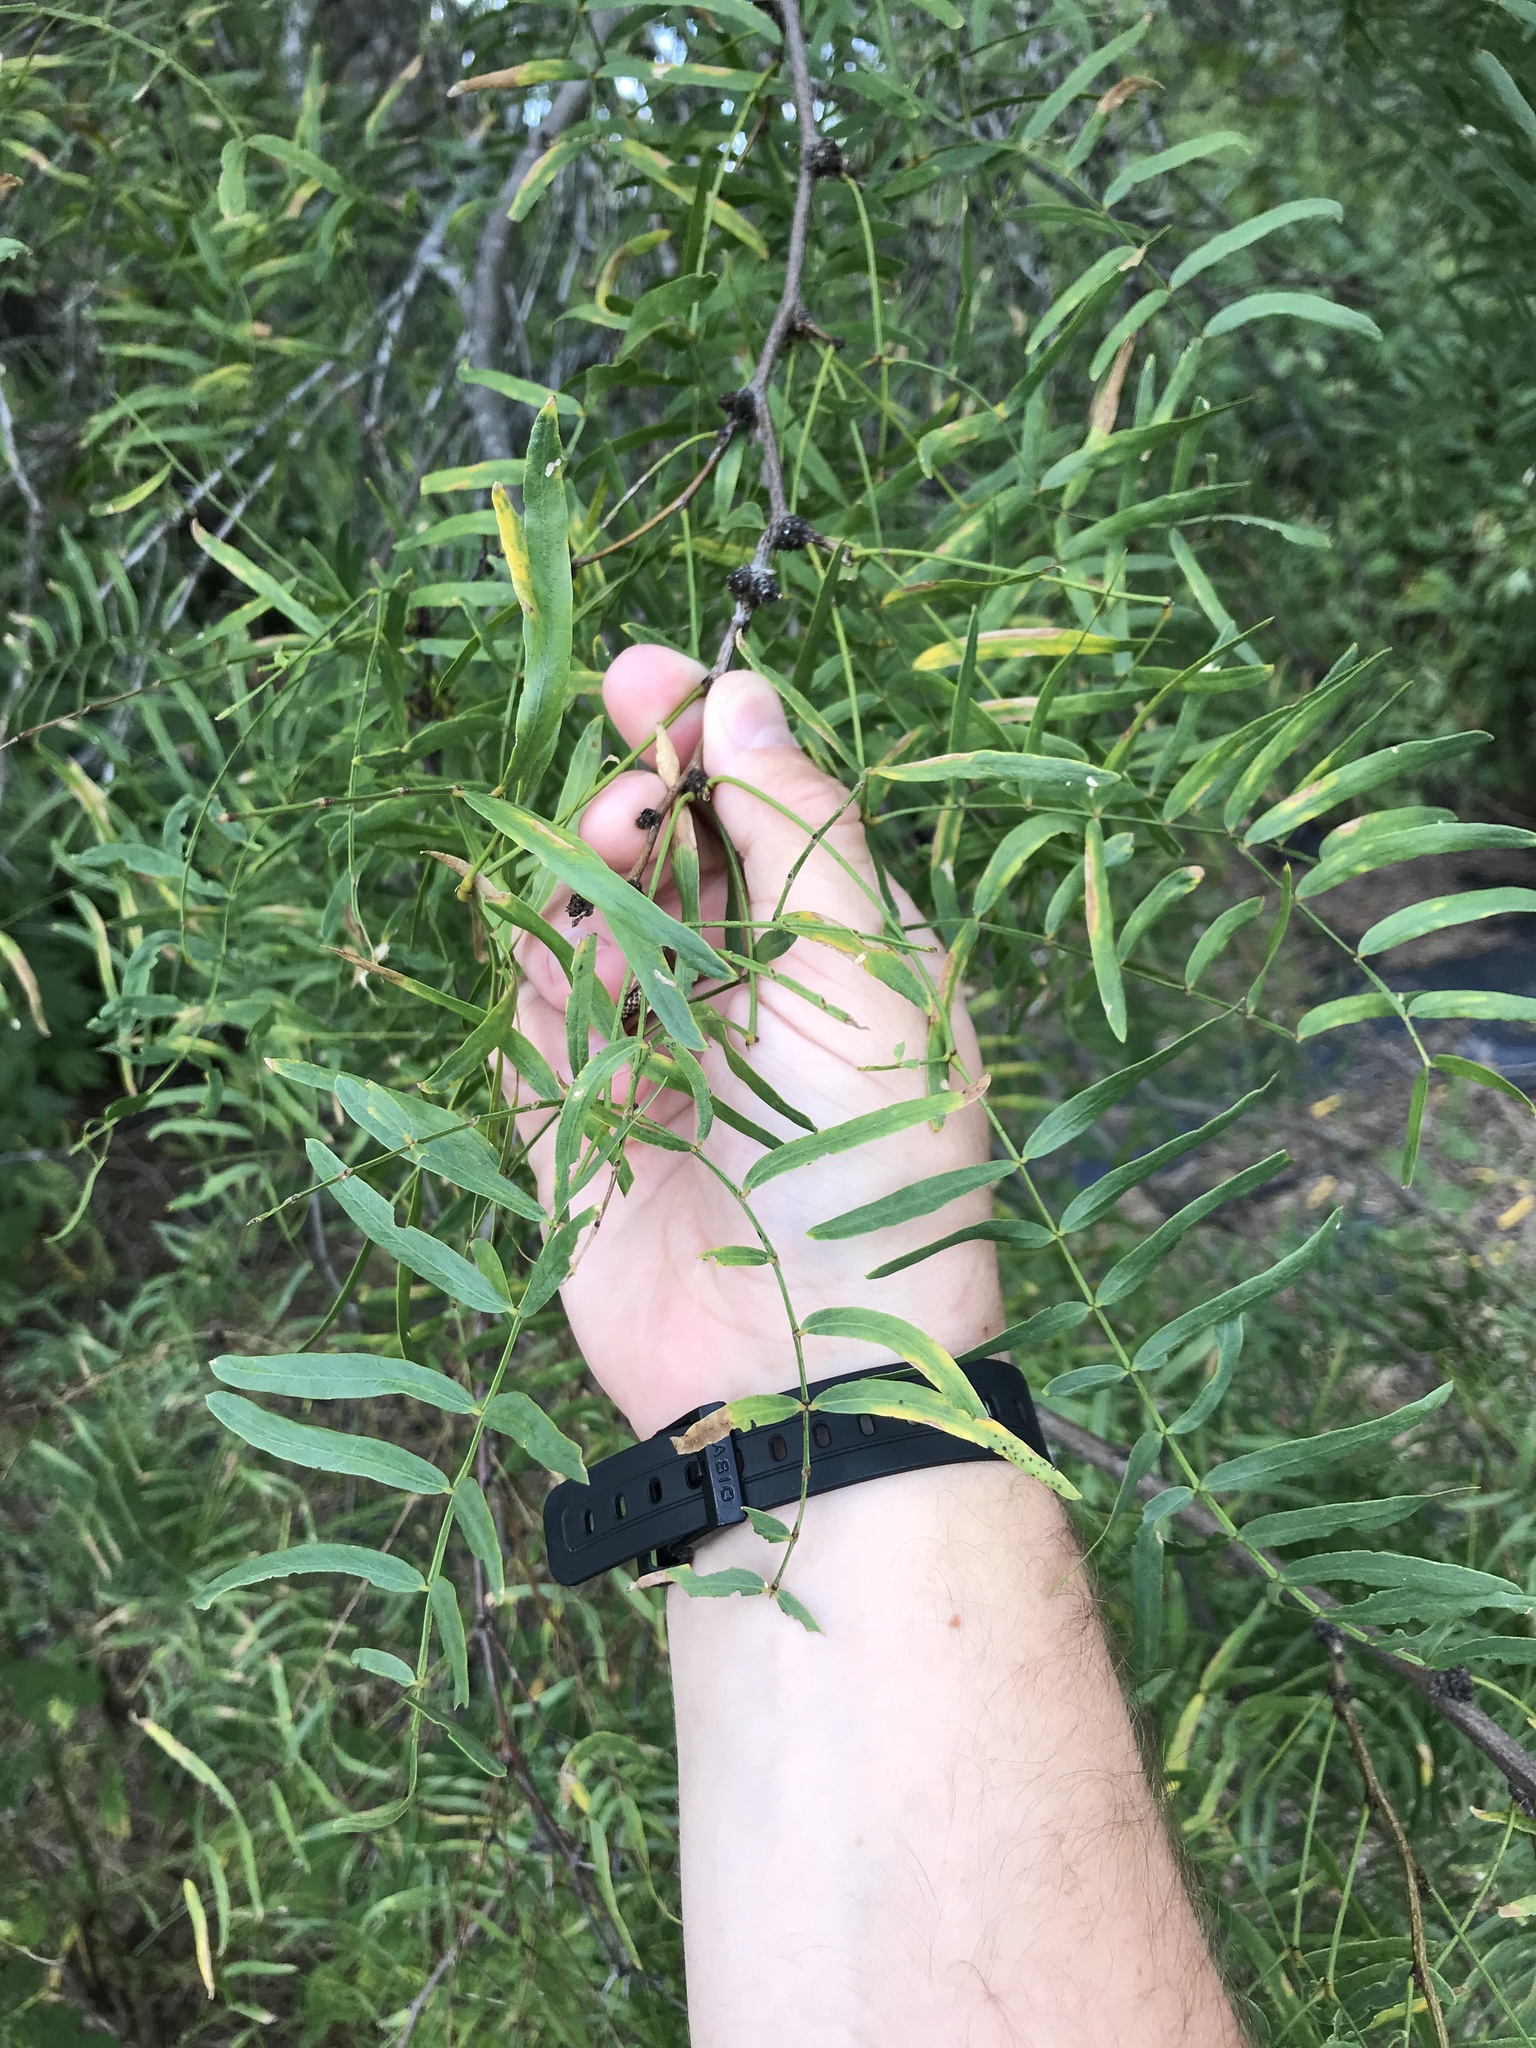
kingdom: Plantae
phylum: Tracheophyta
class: Magnoliopsida
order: Fabales
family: Fabaceae
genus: Prosopis
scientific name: Prosopis glandulosa
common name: Honey mesquite
